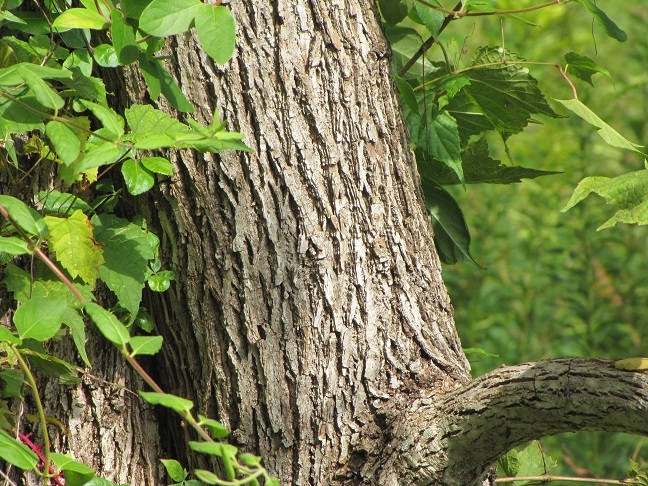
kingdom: Plantae
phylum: Tracheophyta
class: Magnoliopsida
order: Fagales
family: Juglandaceae
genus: Juglans
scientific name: Juglans nigra
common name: Black walnut
